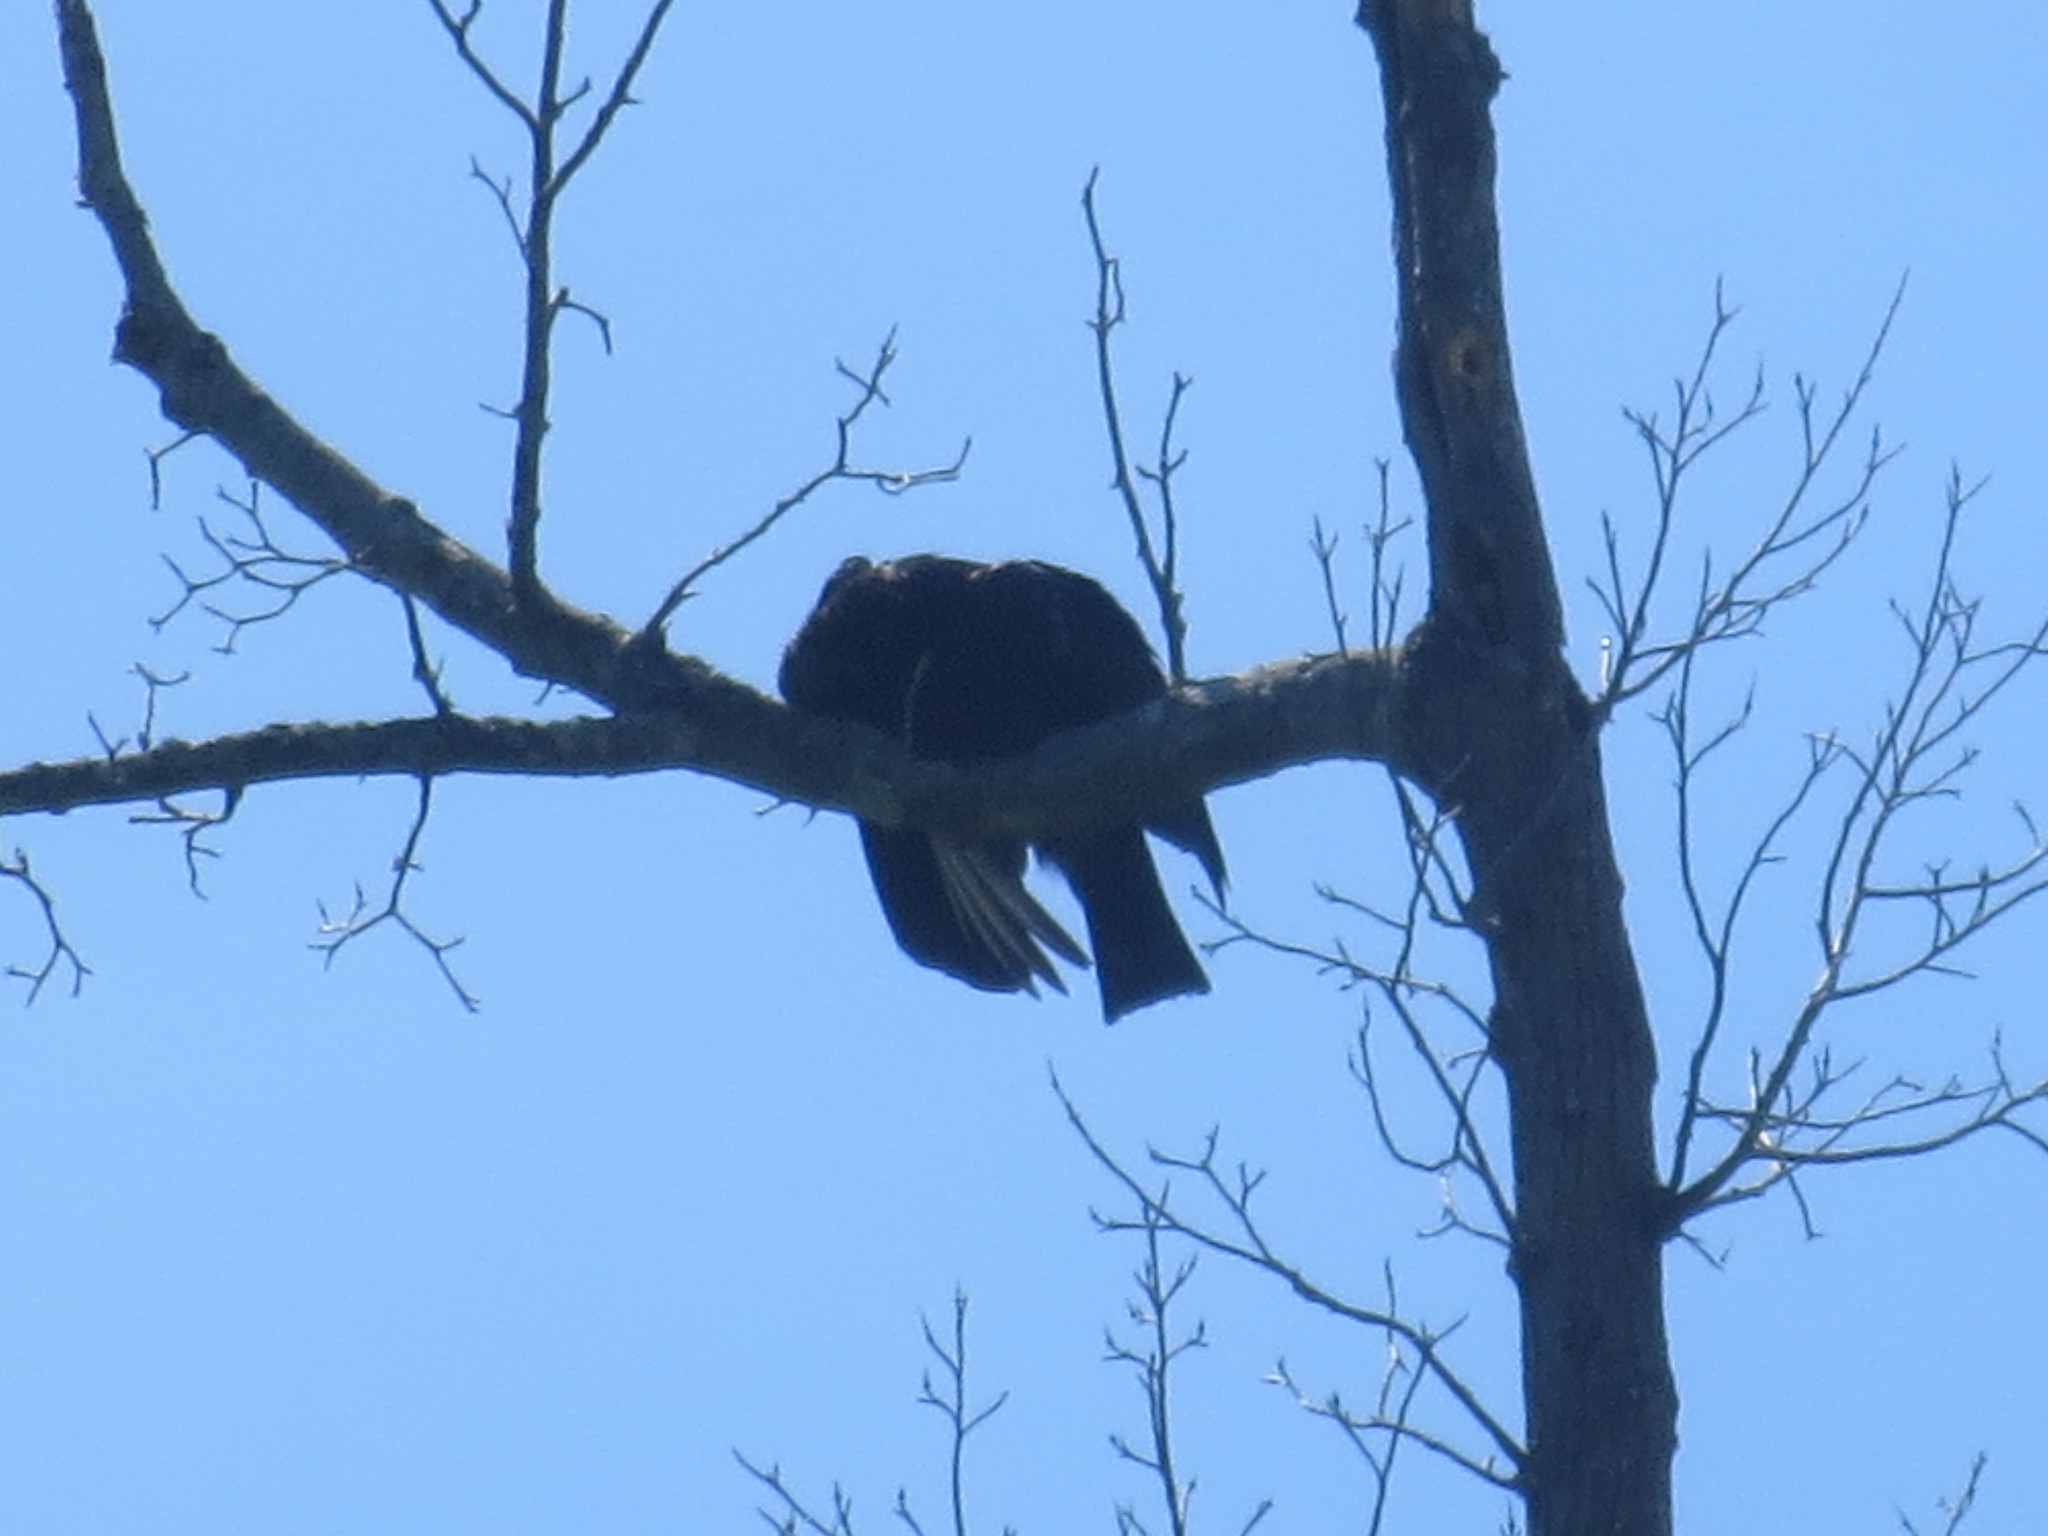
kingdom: Animalia
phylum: Chordata
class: Aves
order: Accipitriformes
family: Cathartidae
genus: Coragyps
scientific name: Coragyps atratus
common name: Black vulture
